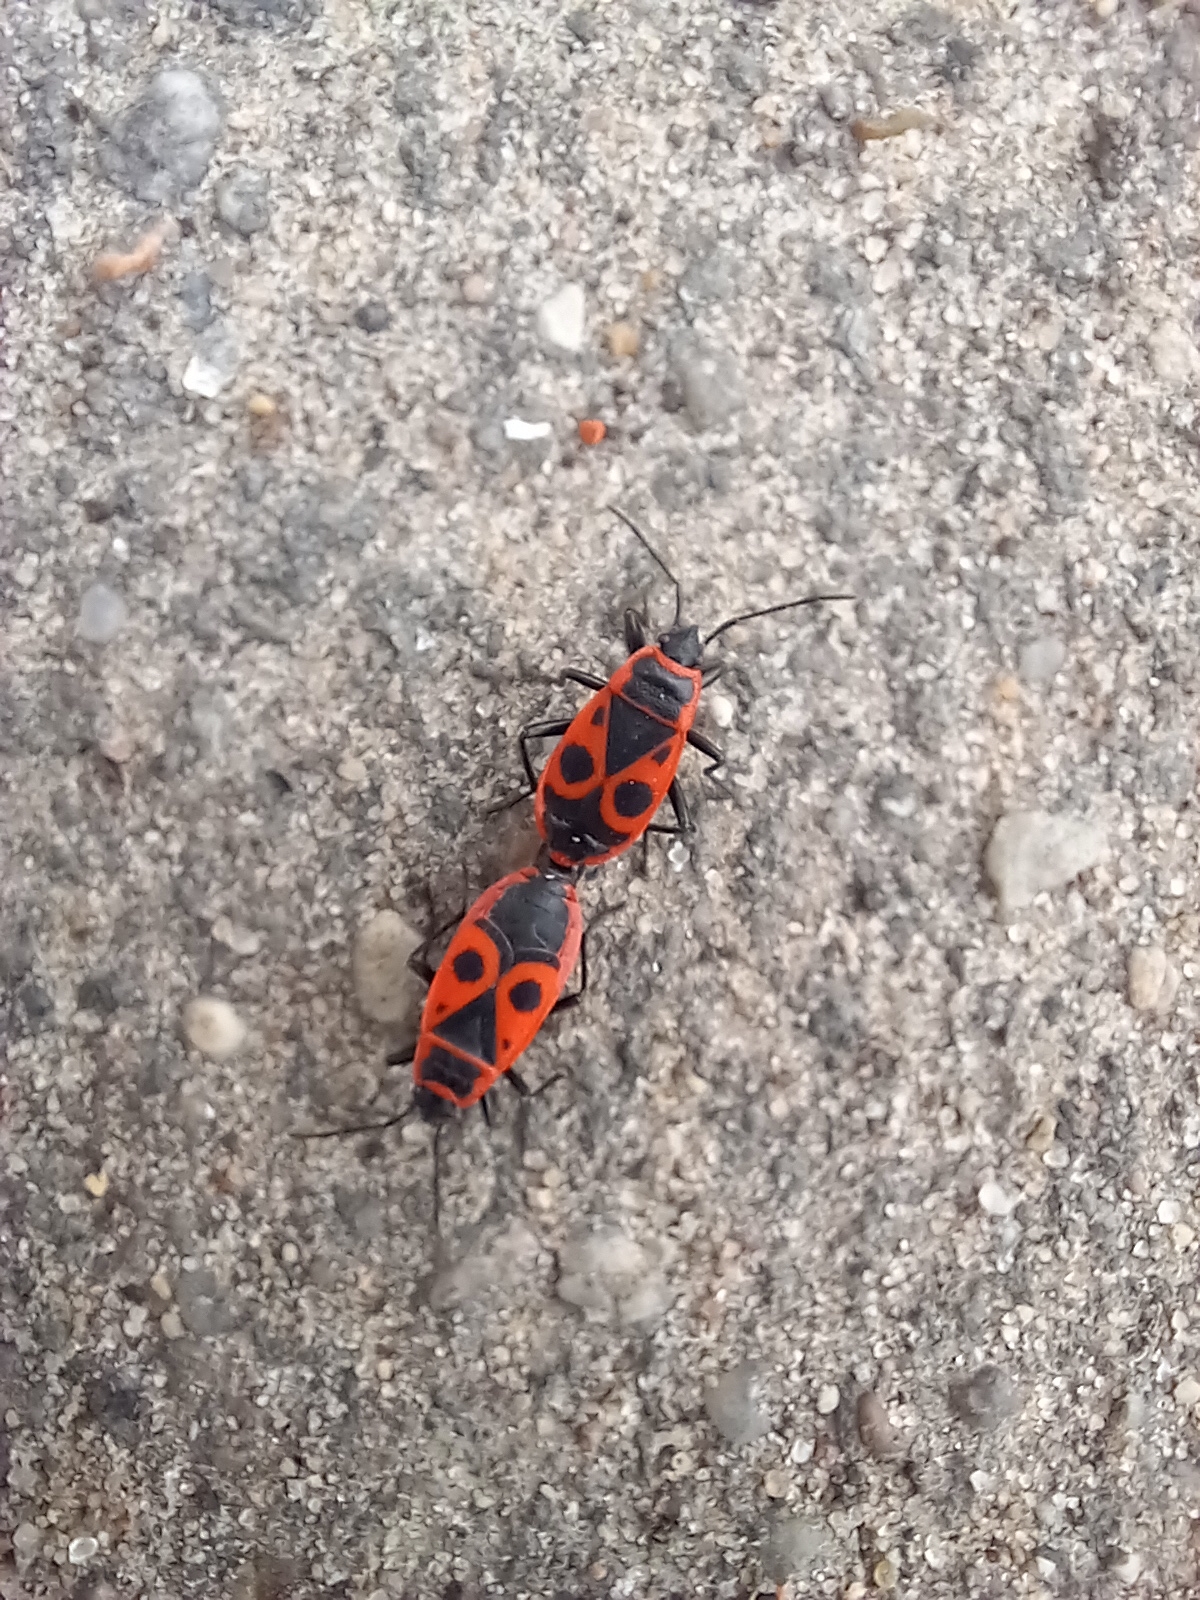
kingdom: Animalia
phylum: Arthropoda
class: Insecta
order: Hemiptera
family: Pyrrhocoridae
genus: Pyrrhocoris
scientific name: Pyrrhocoris apterus
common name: Firebug
